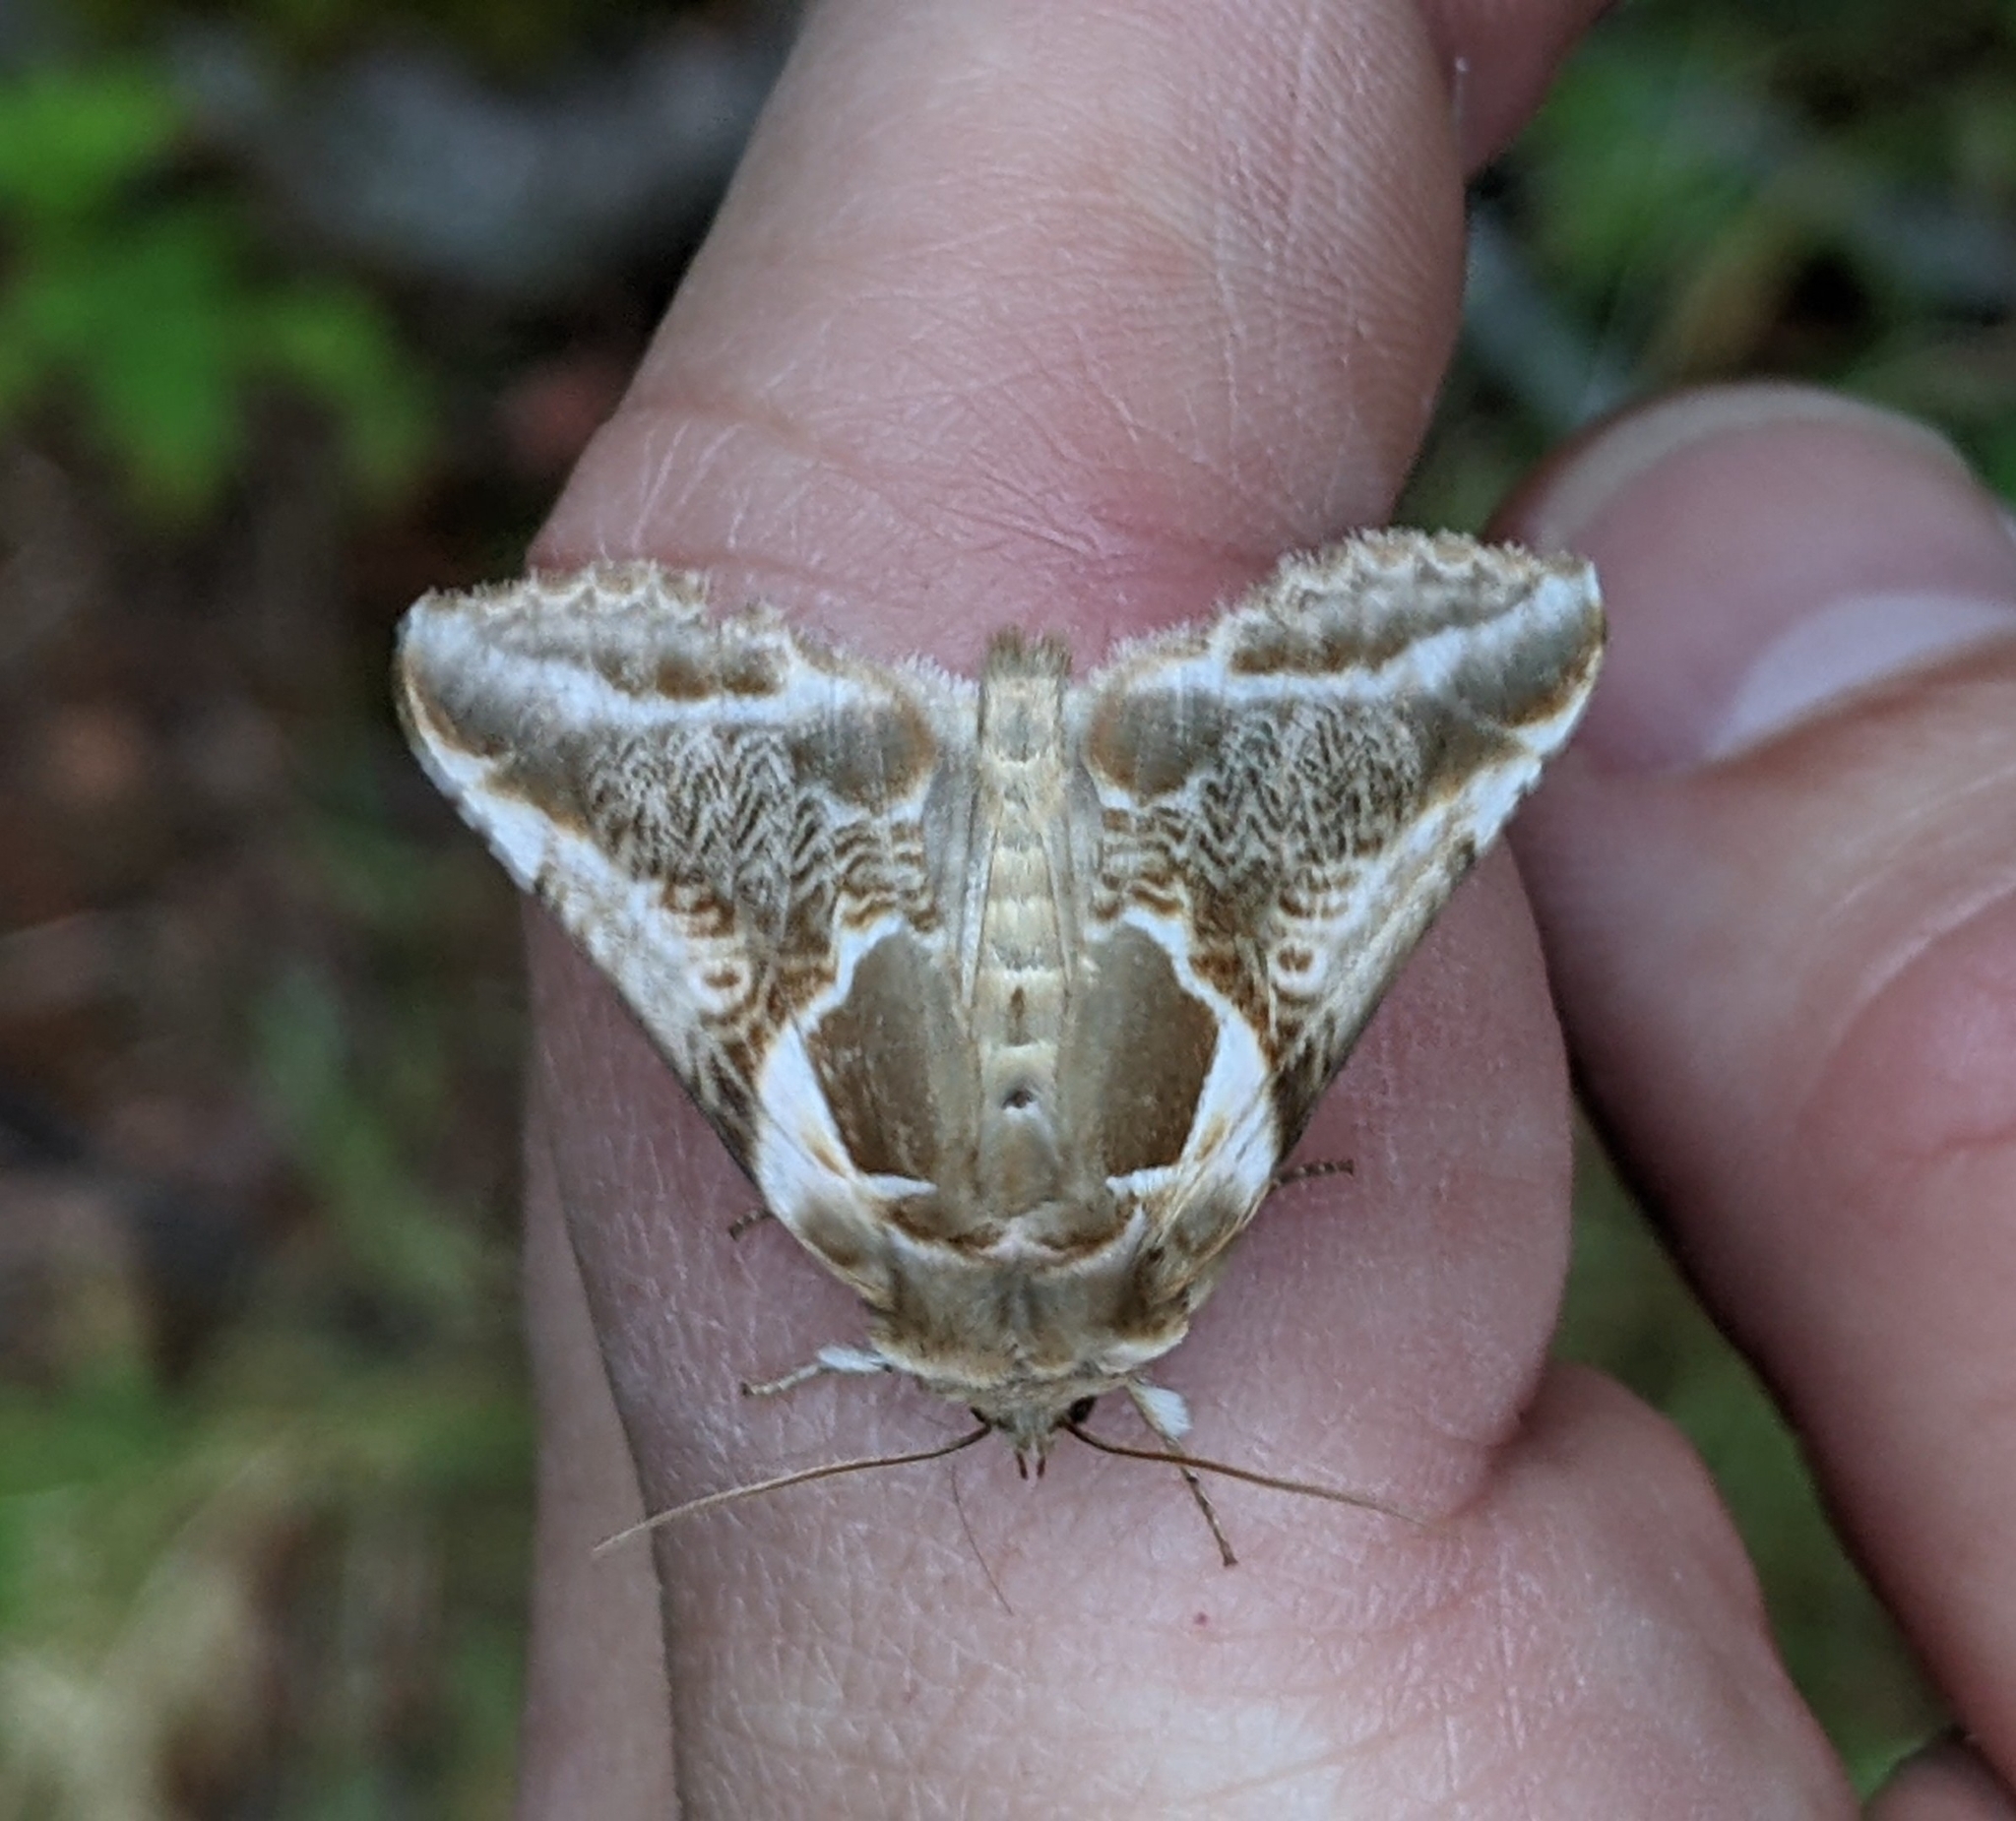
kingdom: Animalia
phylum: Arthropoda
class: Insecta
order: Lepidoptera
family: Drepanidae
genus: Habrosyne
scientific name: Habrosyne scripta
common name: Lettered habrosyne moth
